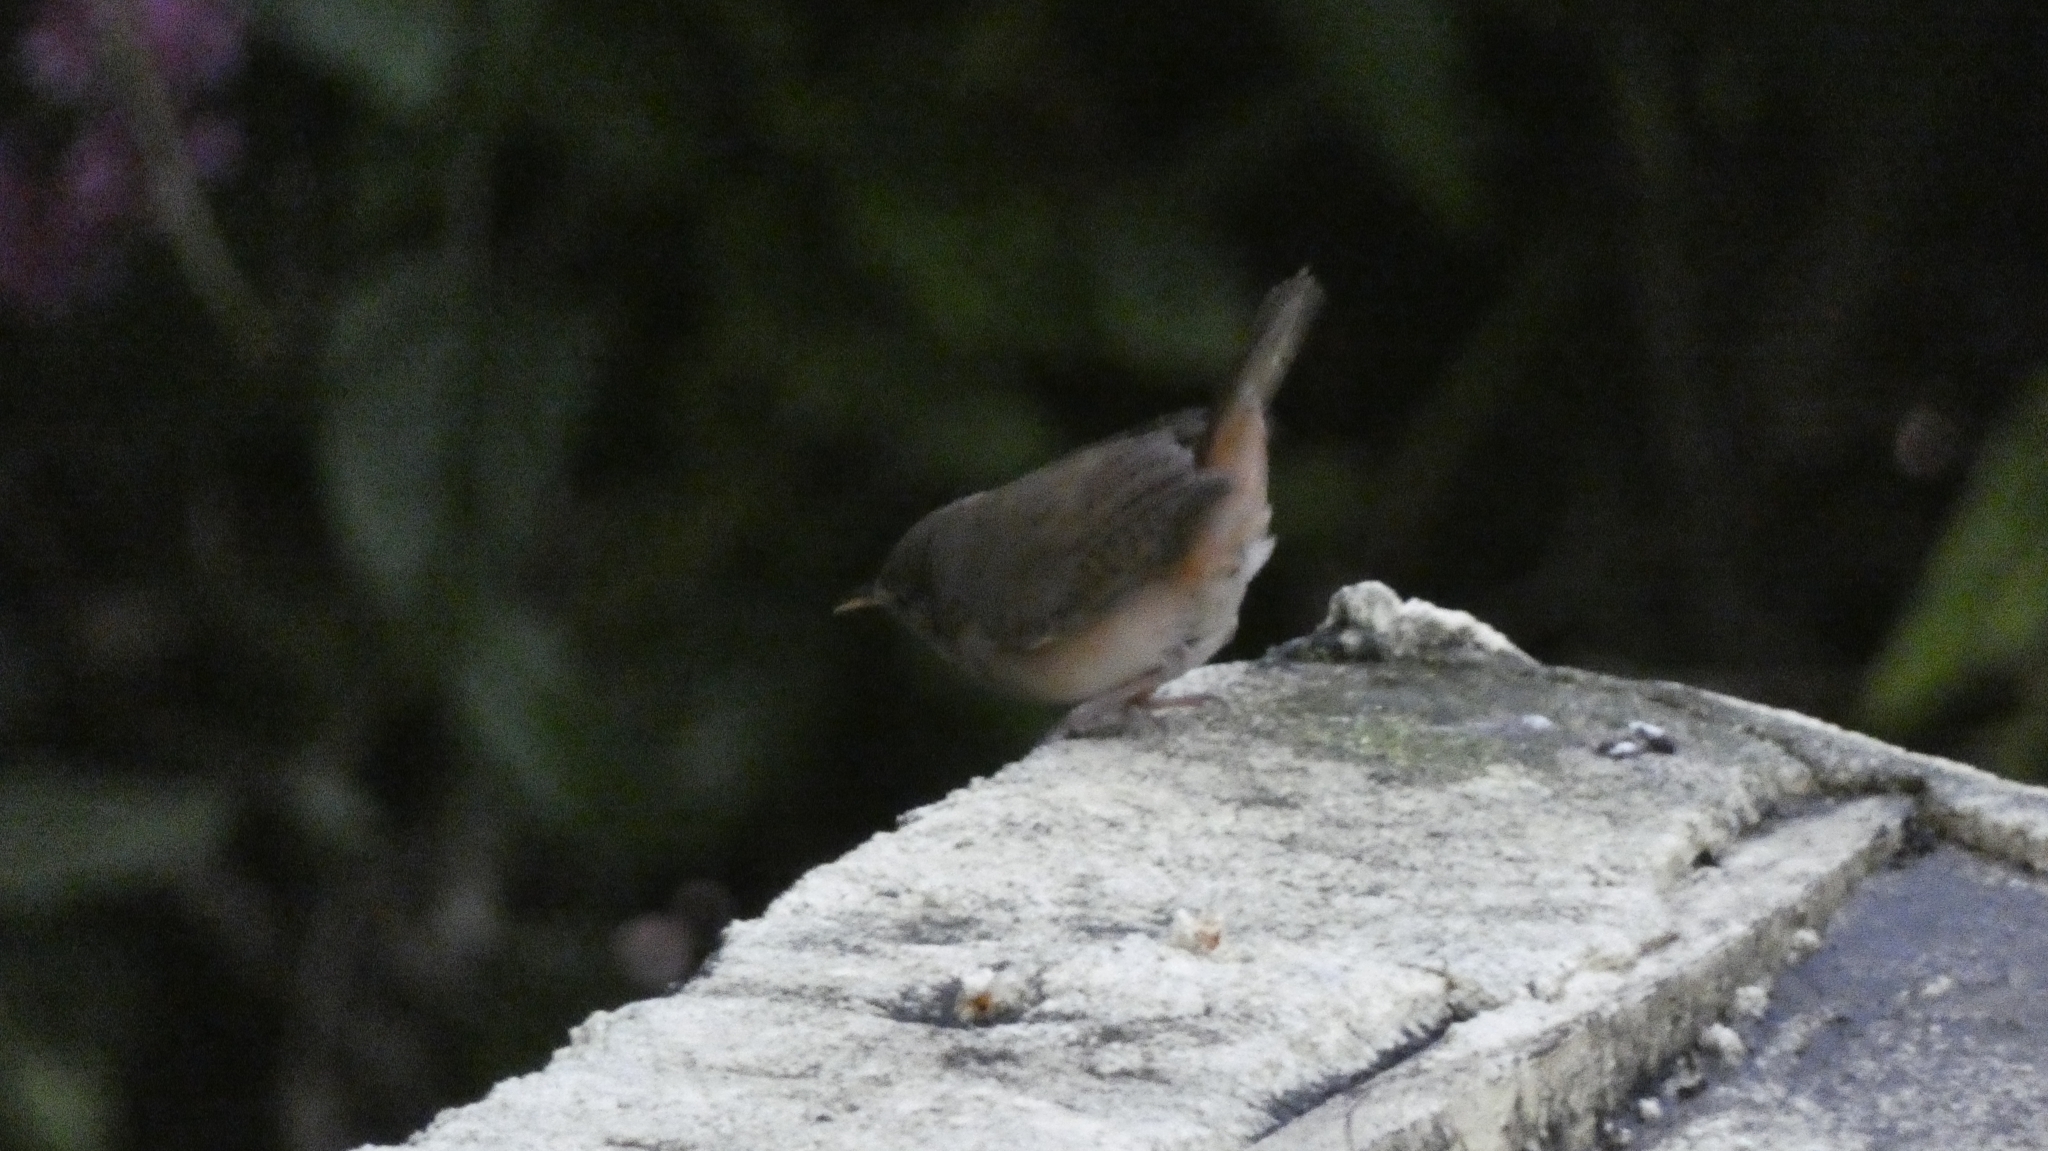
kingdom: Animalia
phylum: Chordata
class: Aves
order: Passeriformes
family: Troglodytidae
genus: Troglodytes
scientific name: Troglodytes aedon
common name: House wren
